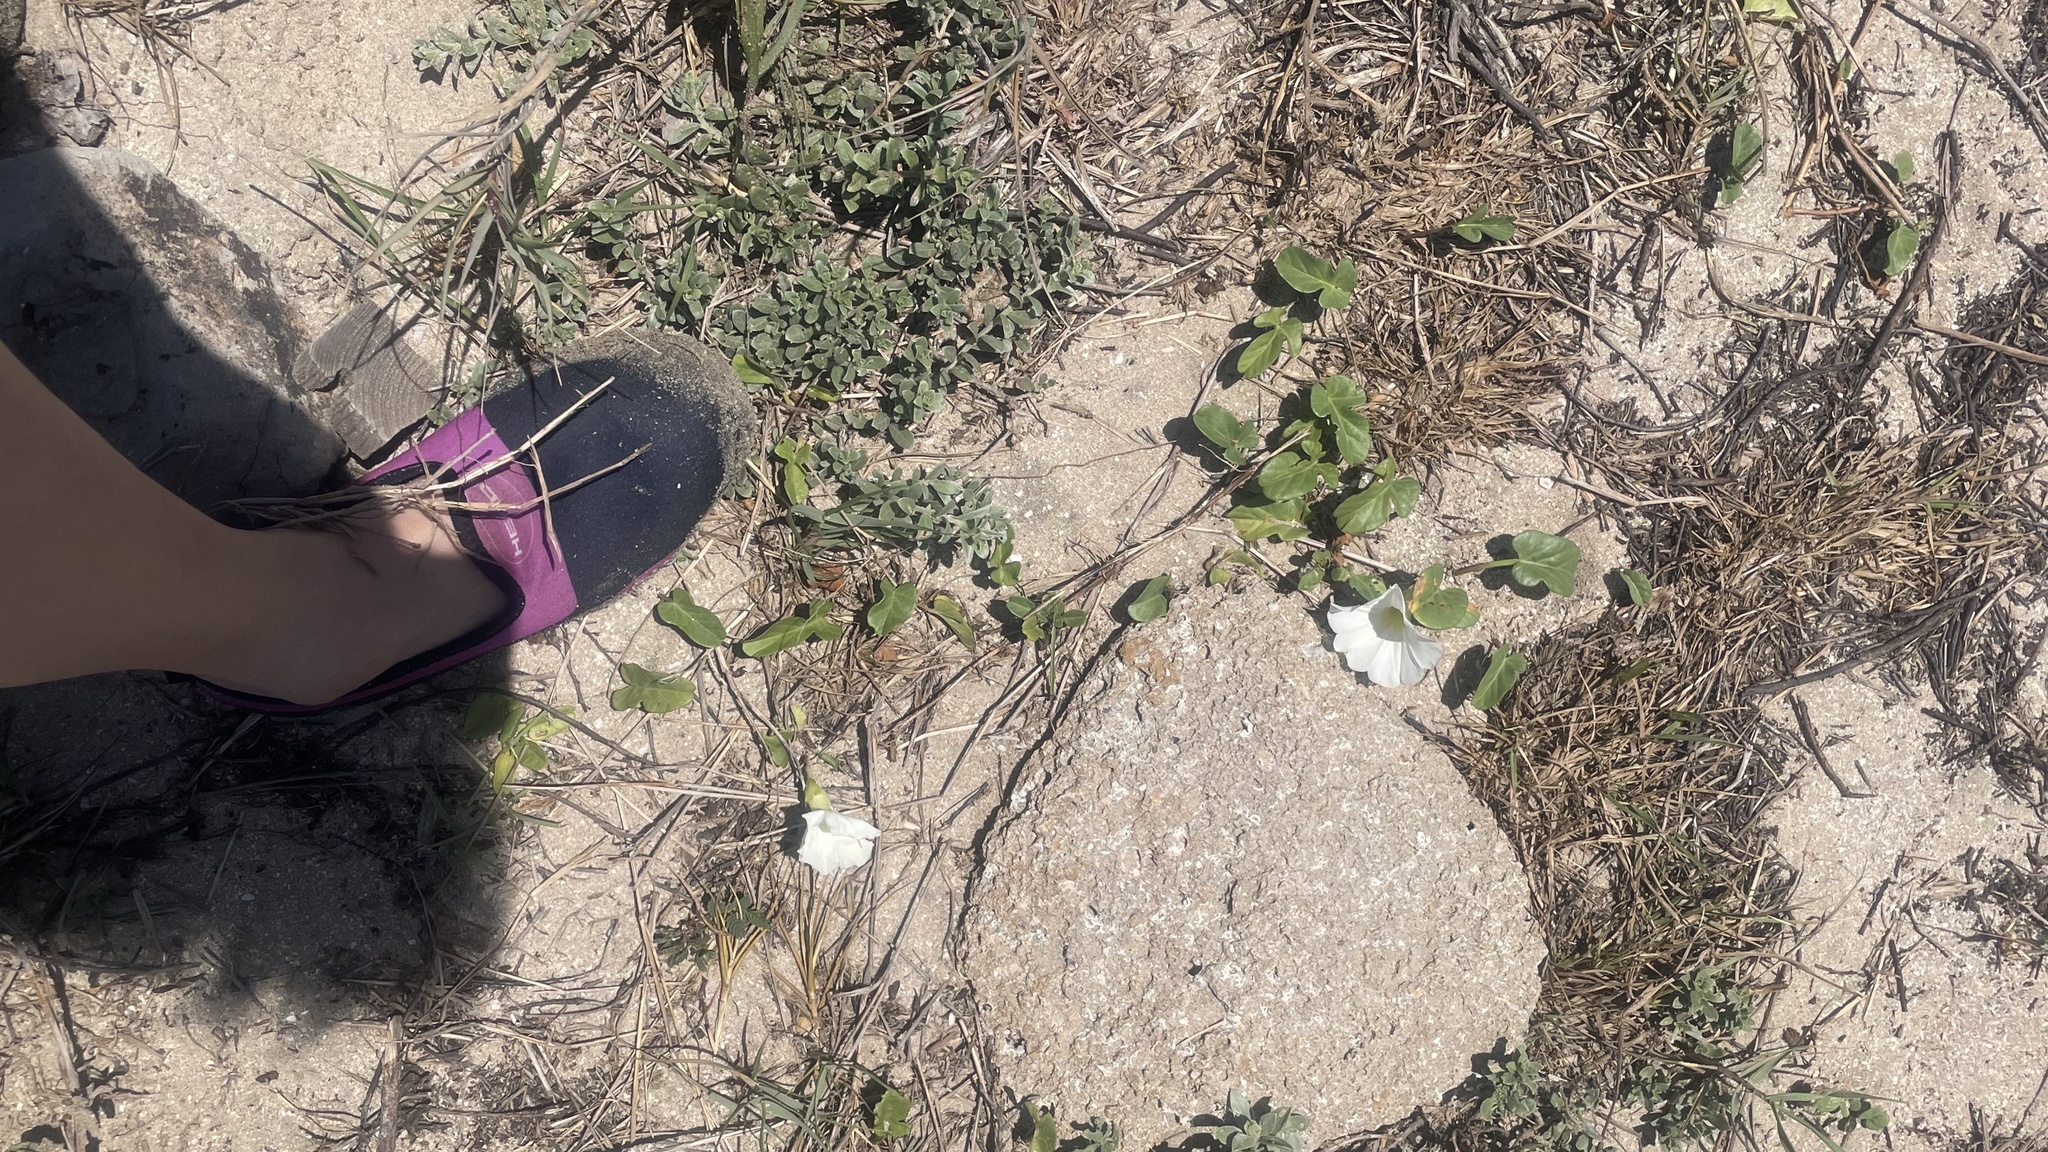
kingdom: Plantae
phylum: Tracheophyta
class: Magnoliopsida
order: Solanales
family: Convolvulaceae
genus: Ipomoea
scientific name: Ipomoea imperati
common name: Fiddle-leaf morning-glory
